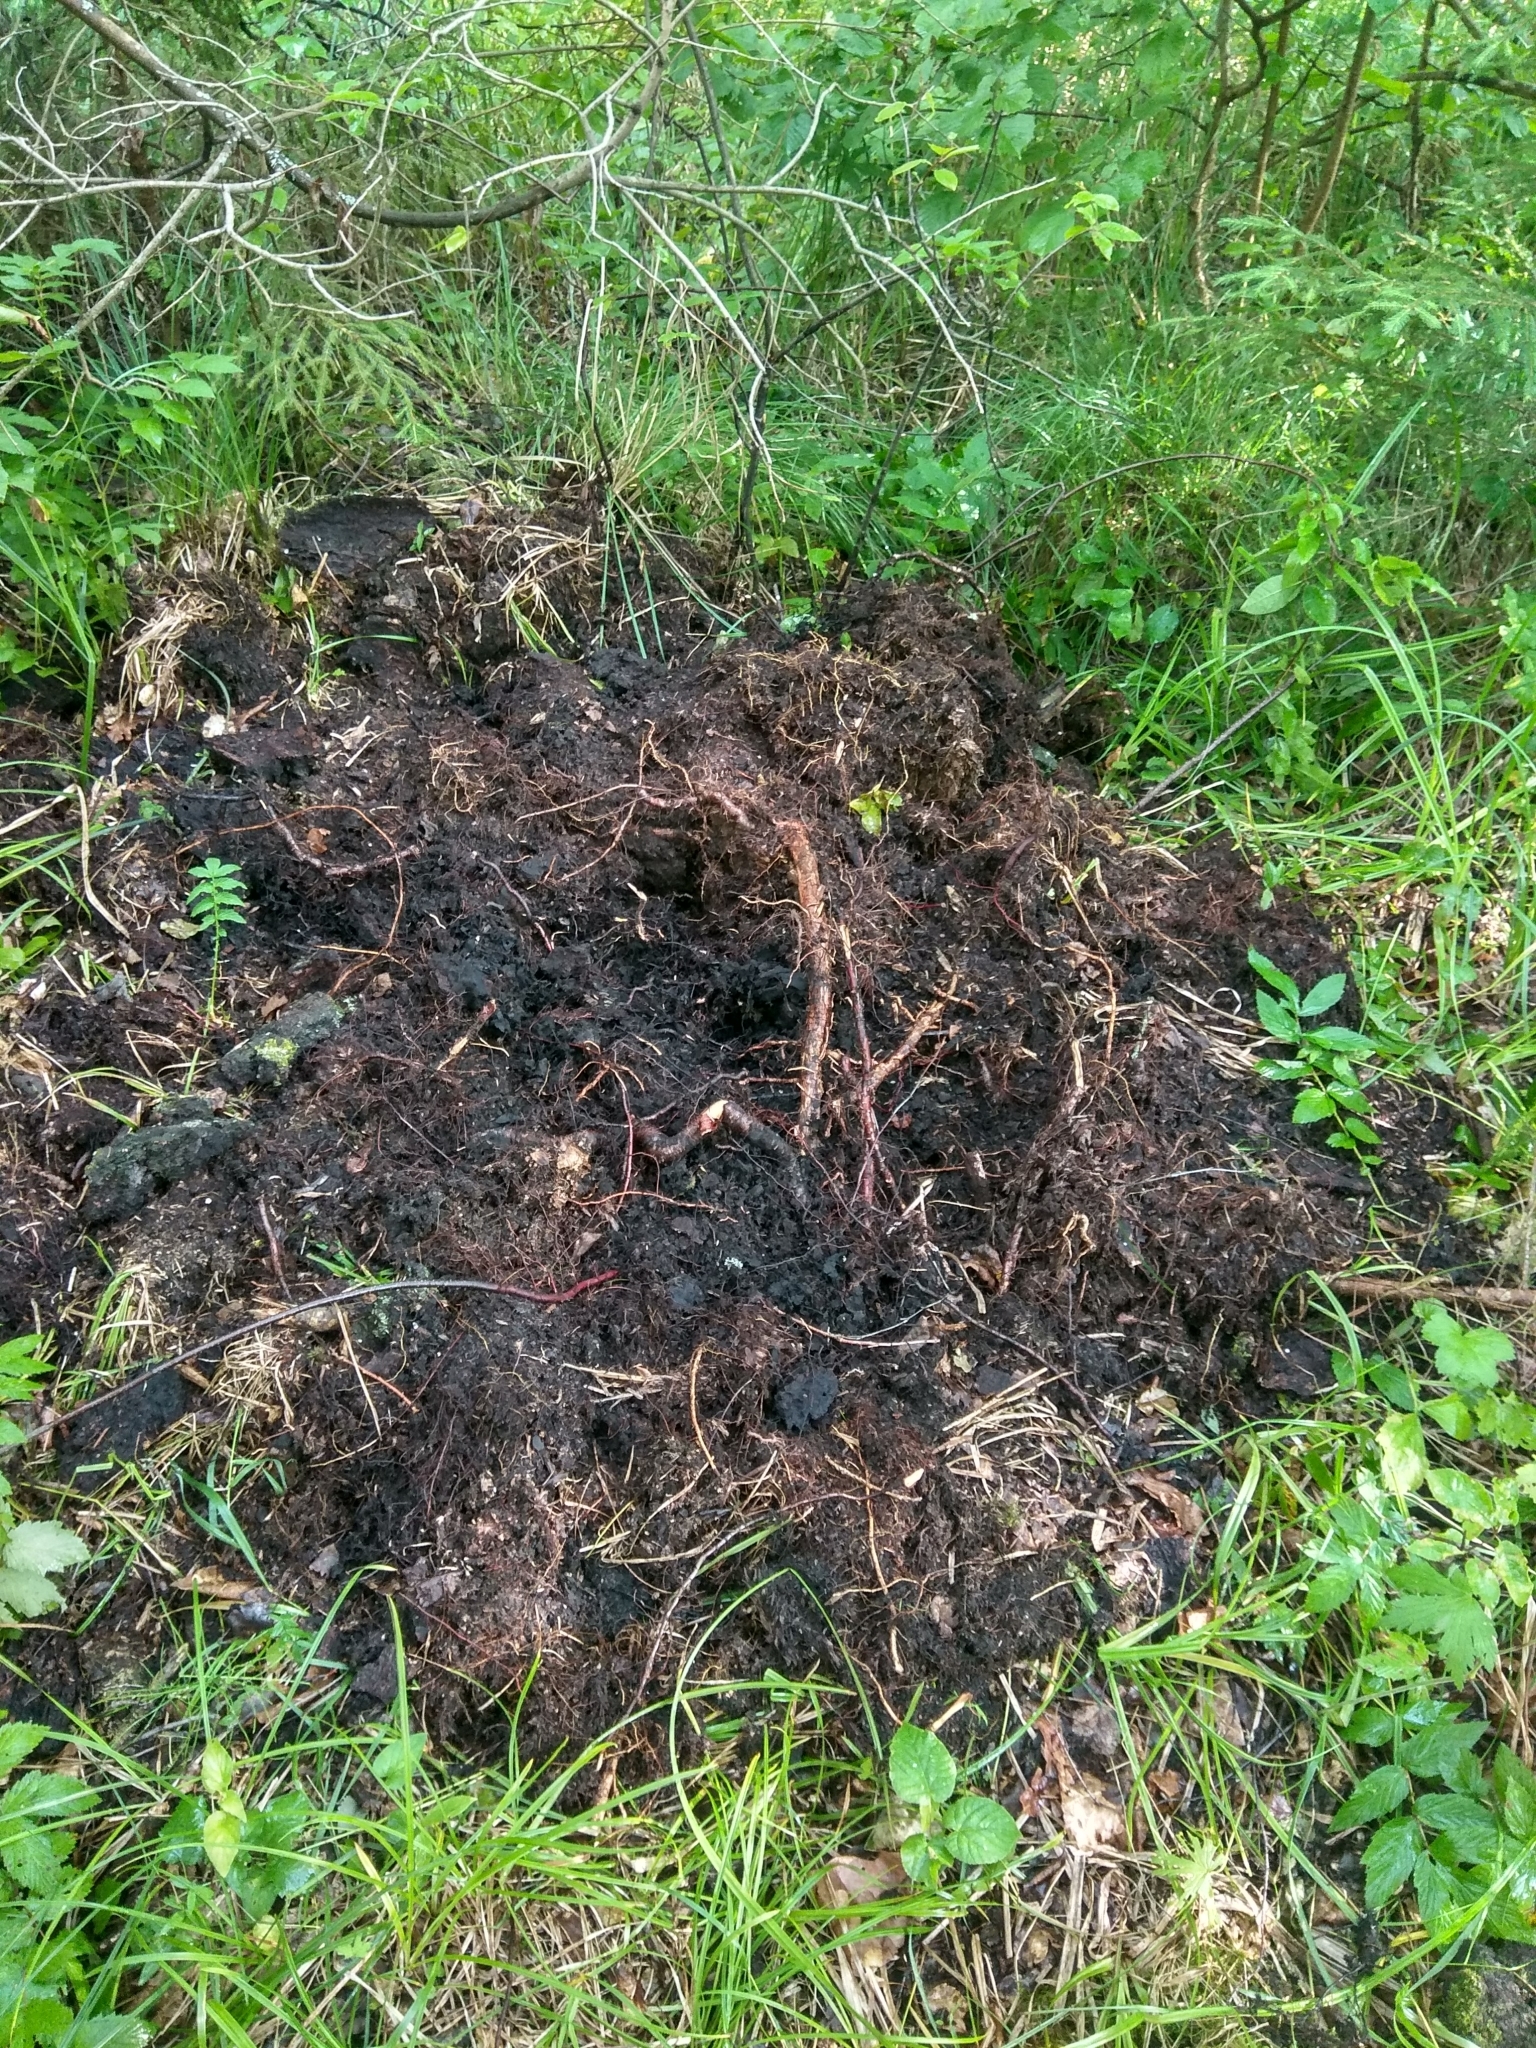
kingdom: Animalia
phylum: Chordata
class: Mammalia
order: Artiodactyla
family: Suidae
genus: Sus
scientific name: Sus scrofa
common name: Wild boar
